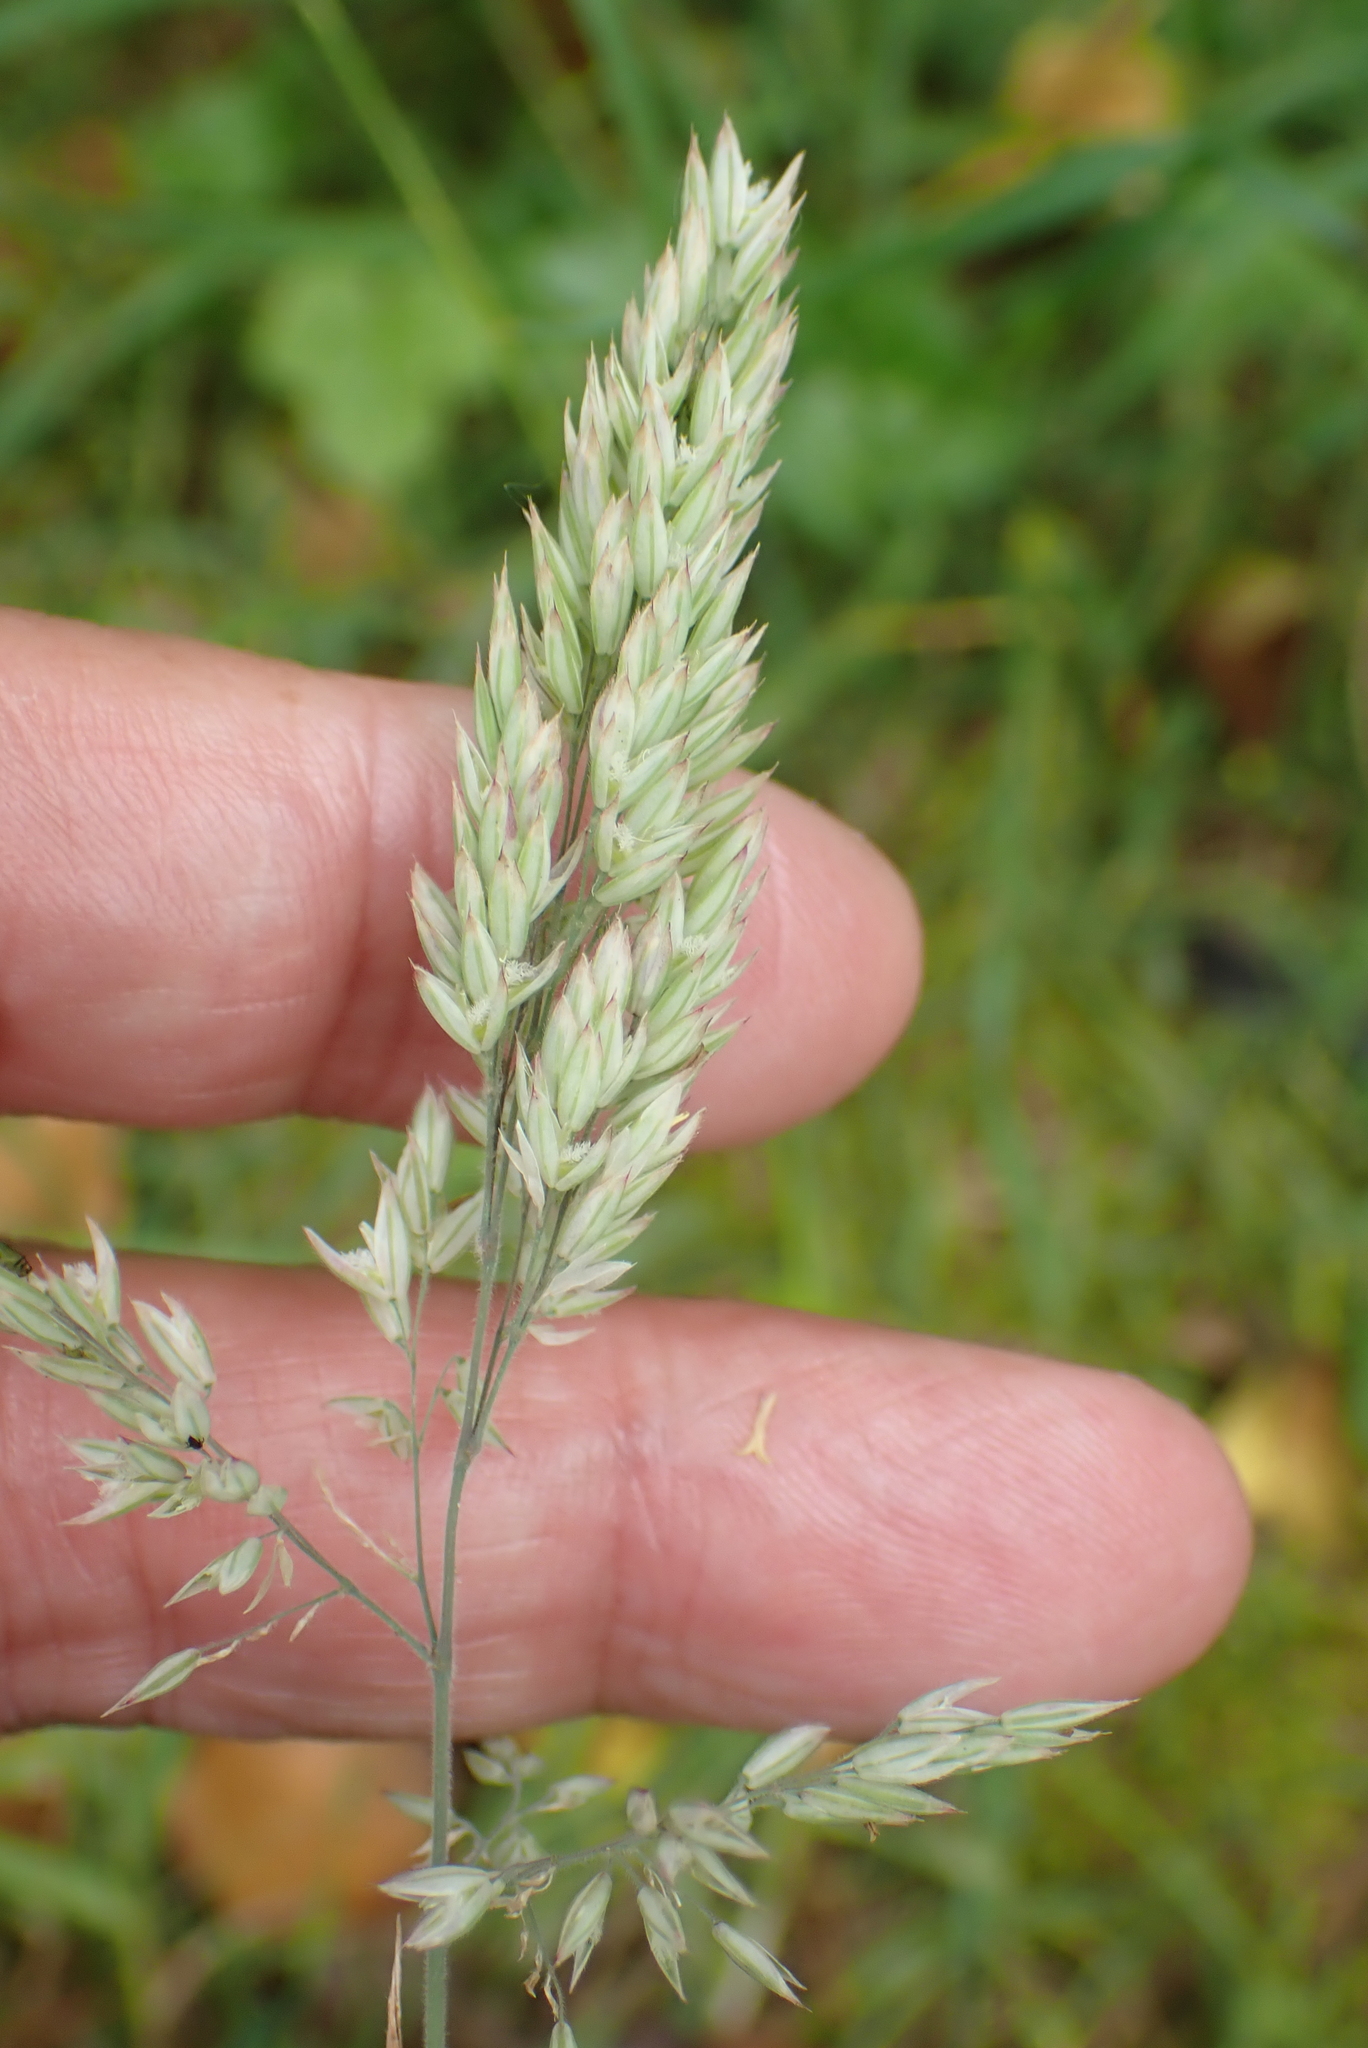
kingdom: Plantae
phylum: Tracheophyta
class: Liliopsida
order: Poales
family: Poaceae
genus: Holcus
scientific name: Holcus lanatus
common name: Yorkshire-fog
